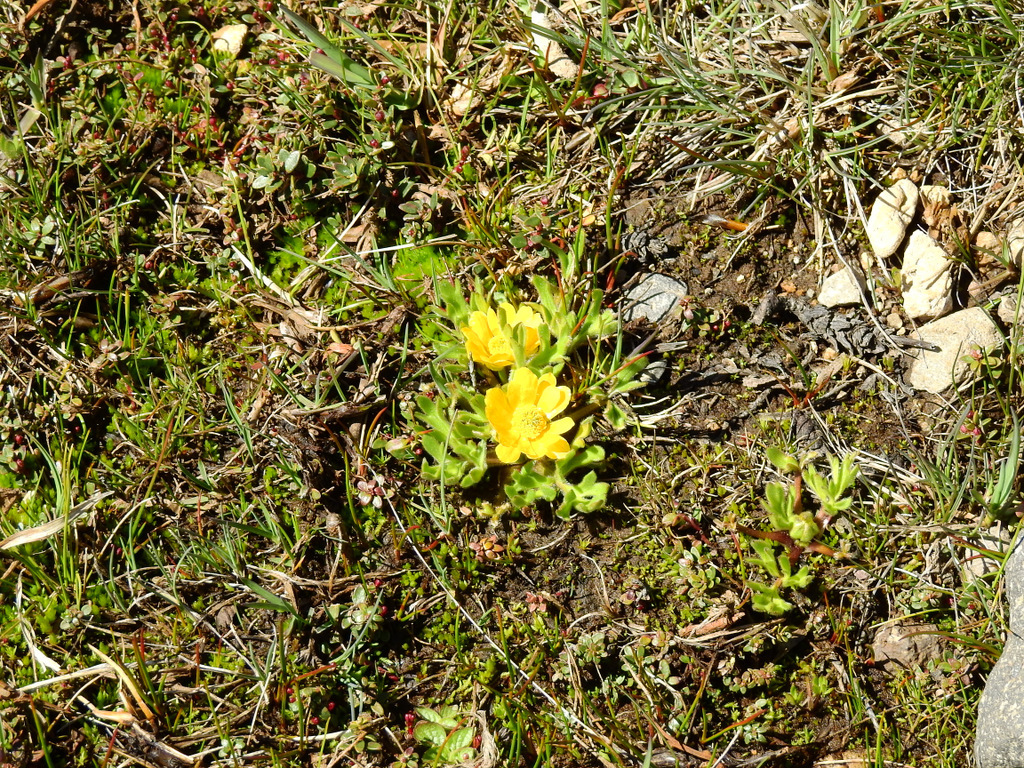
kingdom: Plantae
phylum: Tracheophyta
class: Magnoliopsida
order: Ranunculales
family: Ranunculaceae
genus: Ranunculus
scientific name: Ranunculus peduncularis
